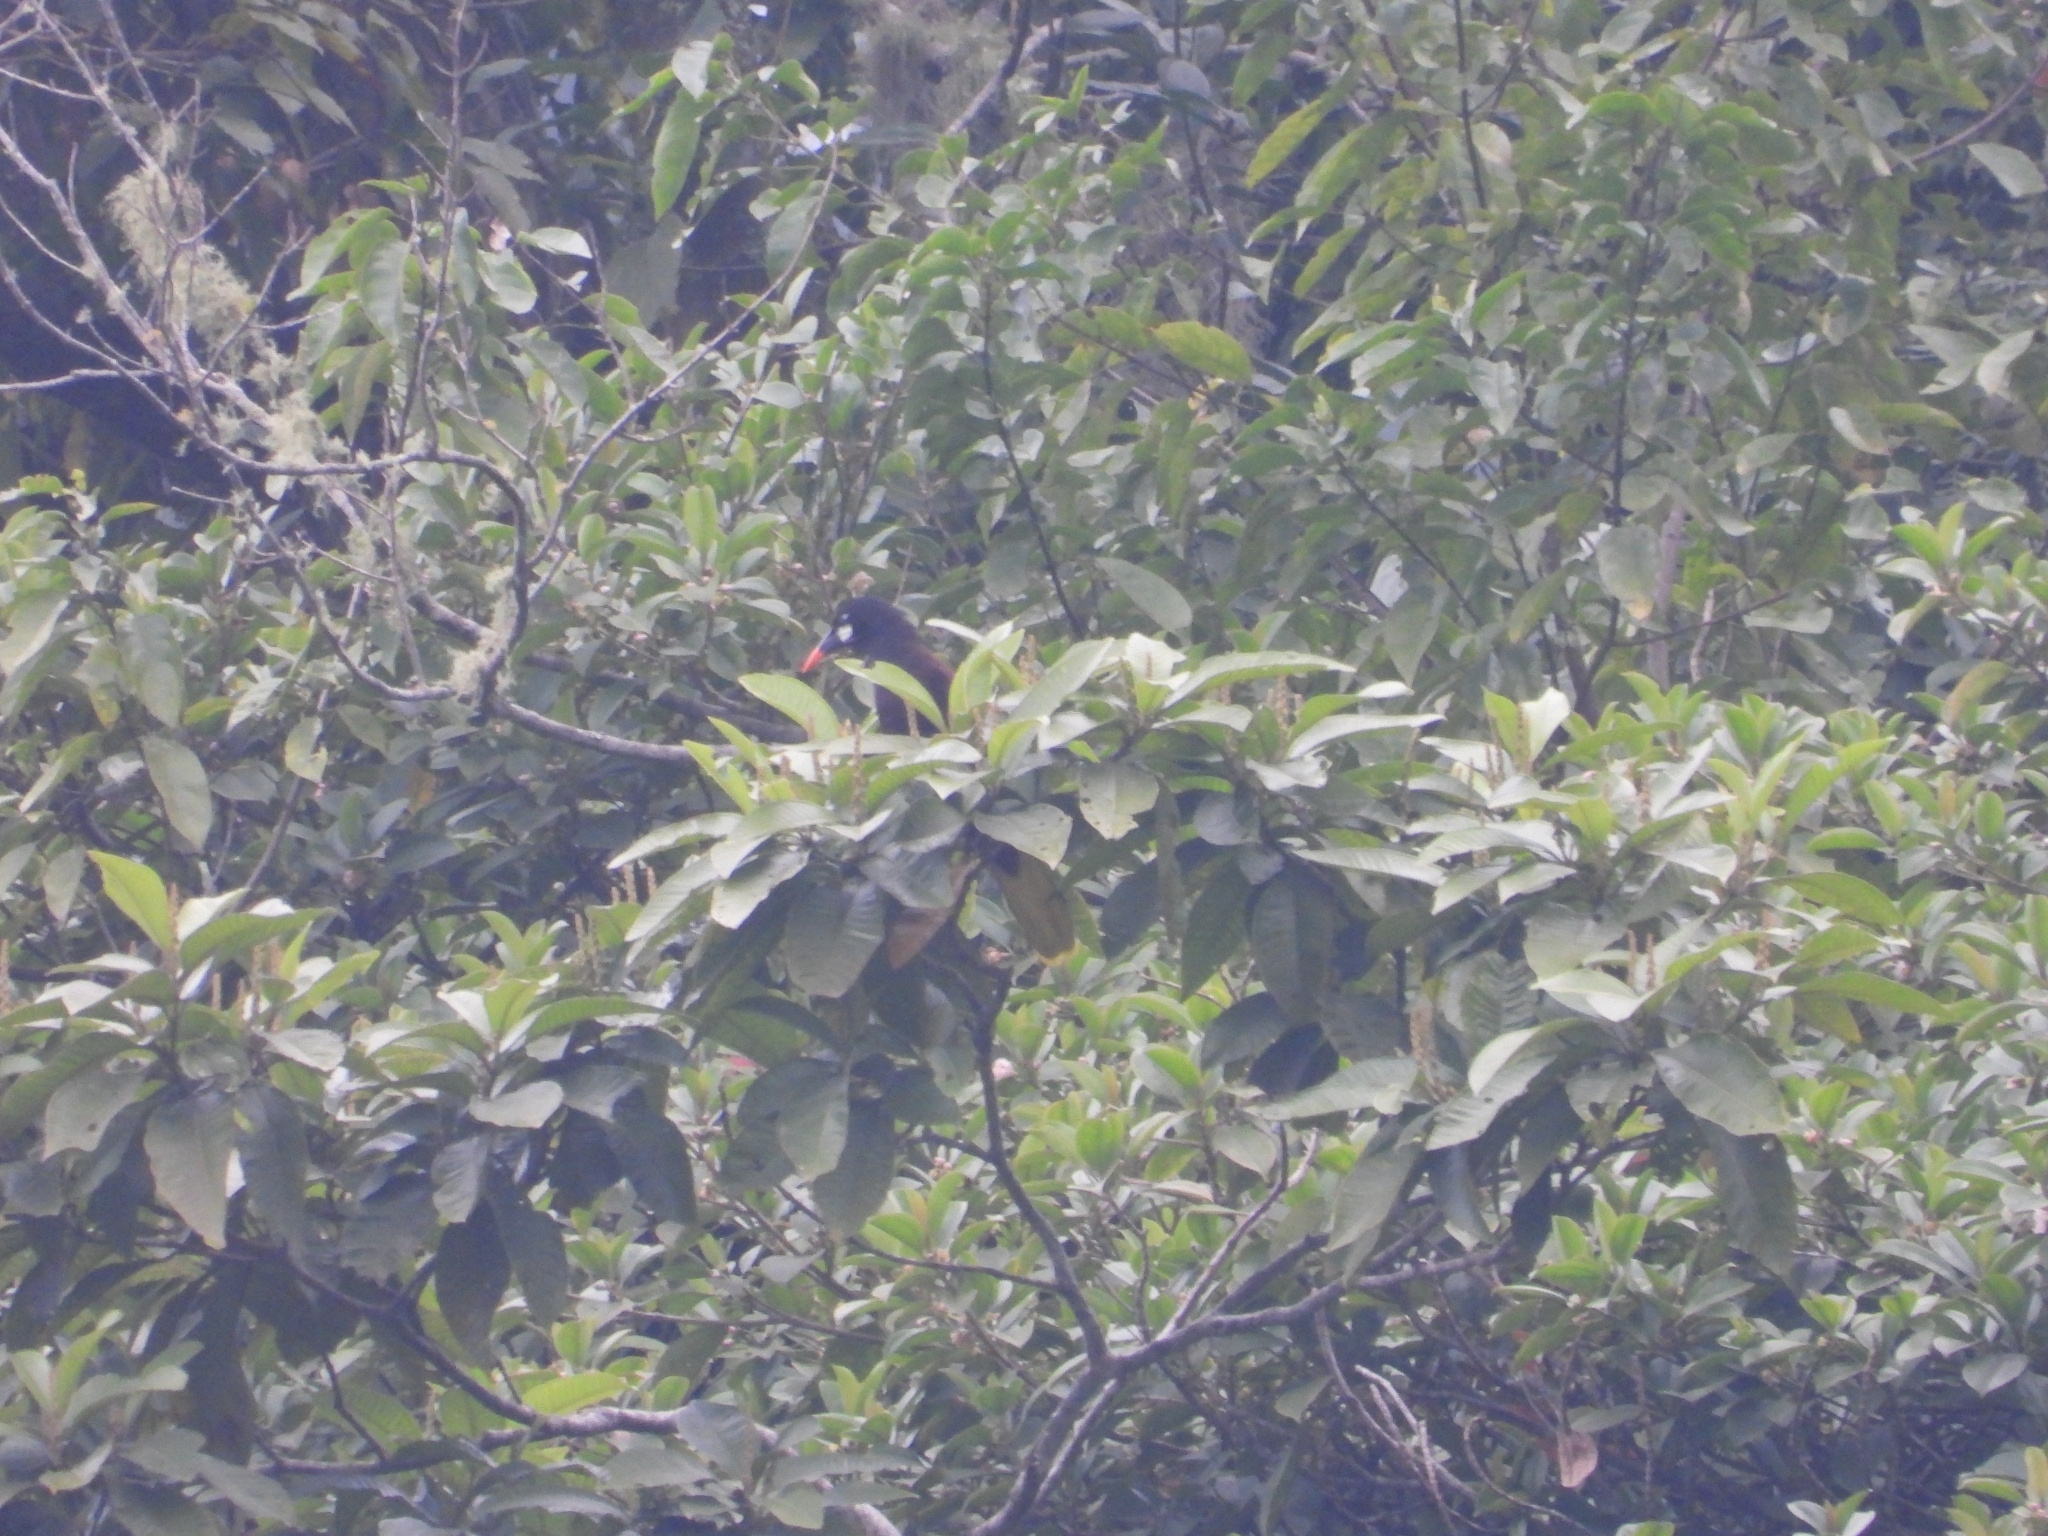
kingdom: Animalia
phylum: Chordata
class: Aves
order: Passeriformes
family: Icteridae
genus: Psarocolius
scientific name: Psarocolius montezuma
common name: Montezuma oropendola
